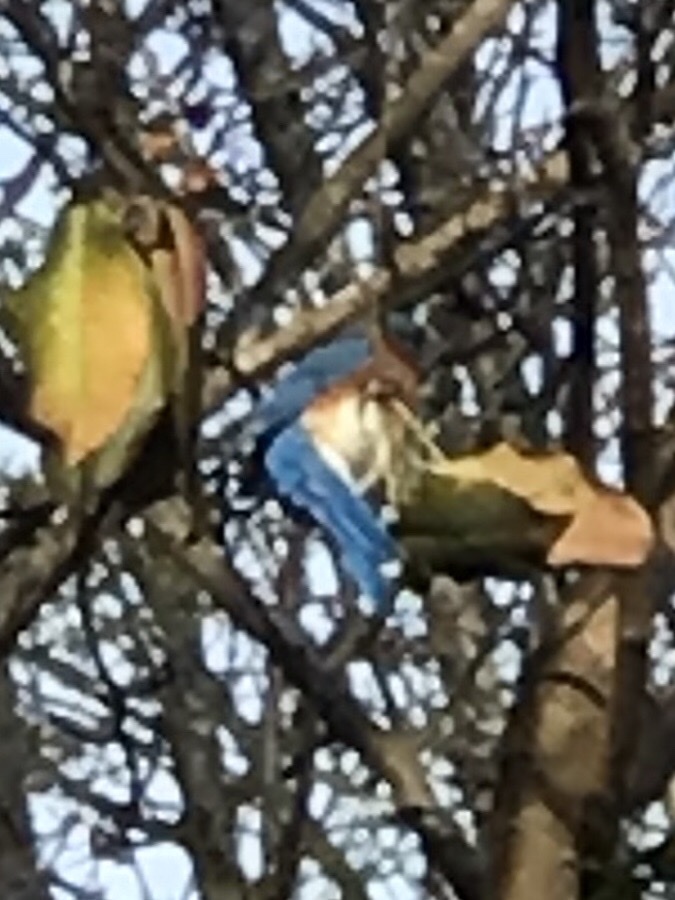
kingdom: Animalia
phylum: Chordata
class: Aves
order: Passeriformes
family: Turdidae
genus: Sialia
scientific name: Sialia sialis
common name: Eastern bluebird
